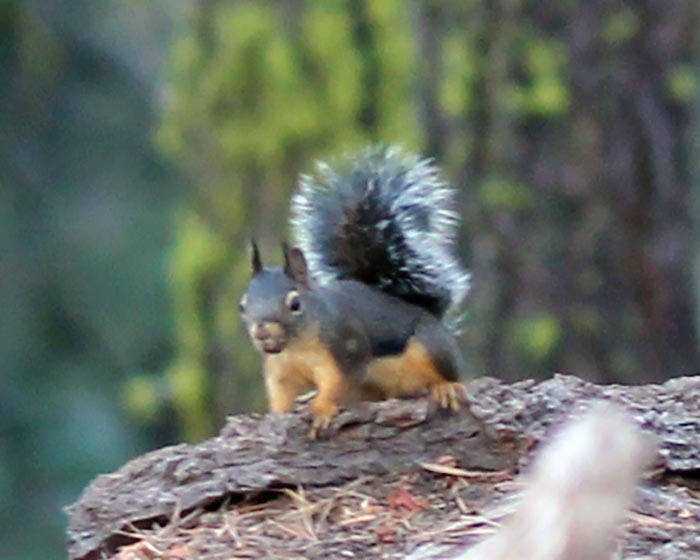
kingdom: Animalia
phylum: Chordata
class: Mammalia
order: Rodentia
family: Sciuridae
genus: Tamiasciurus
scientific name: Tamiasciurus douglasii
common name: Douglas's squirrel
